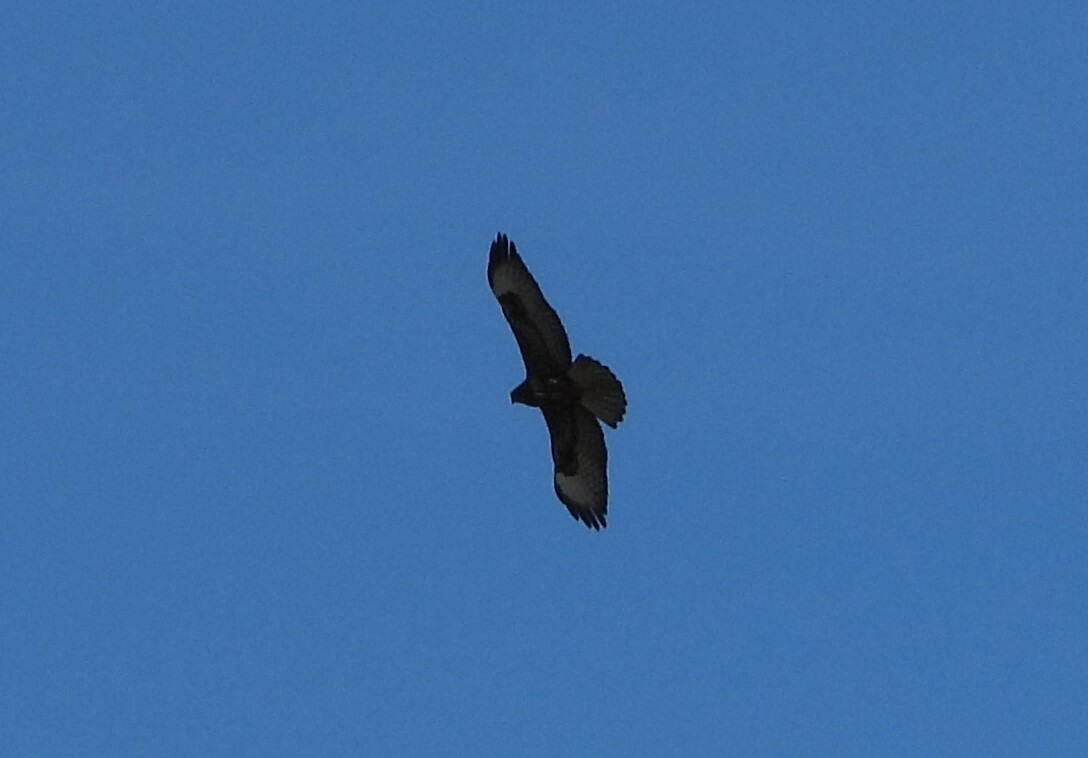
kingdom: Animalia
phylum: Chordata
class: Aves
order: Accipitriformes
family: Accipitridae
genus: Buteo
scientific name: Buteo buteo
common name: Common buzzard
